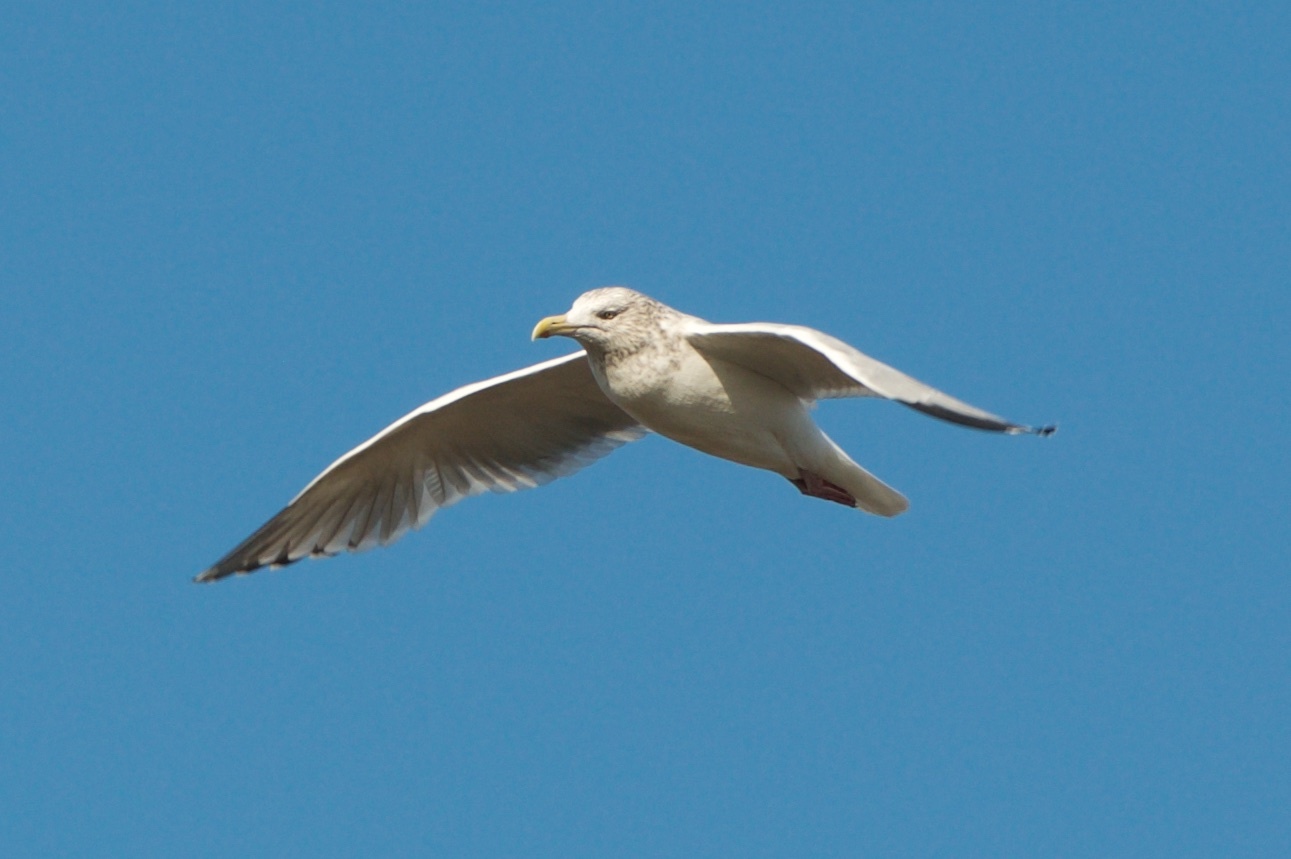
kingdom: Animalia
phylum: Chordata
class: Aves
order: Charadriiformes
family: Laridae
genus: Larus
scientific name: Larus argentatus
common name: Herring gull
